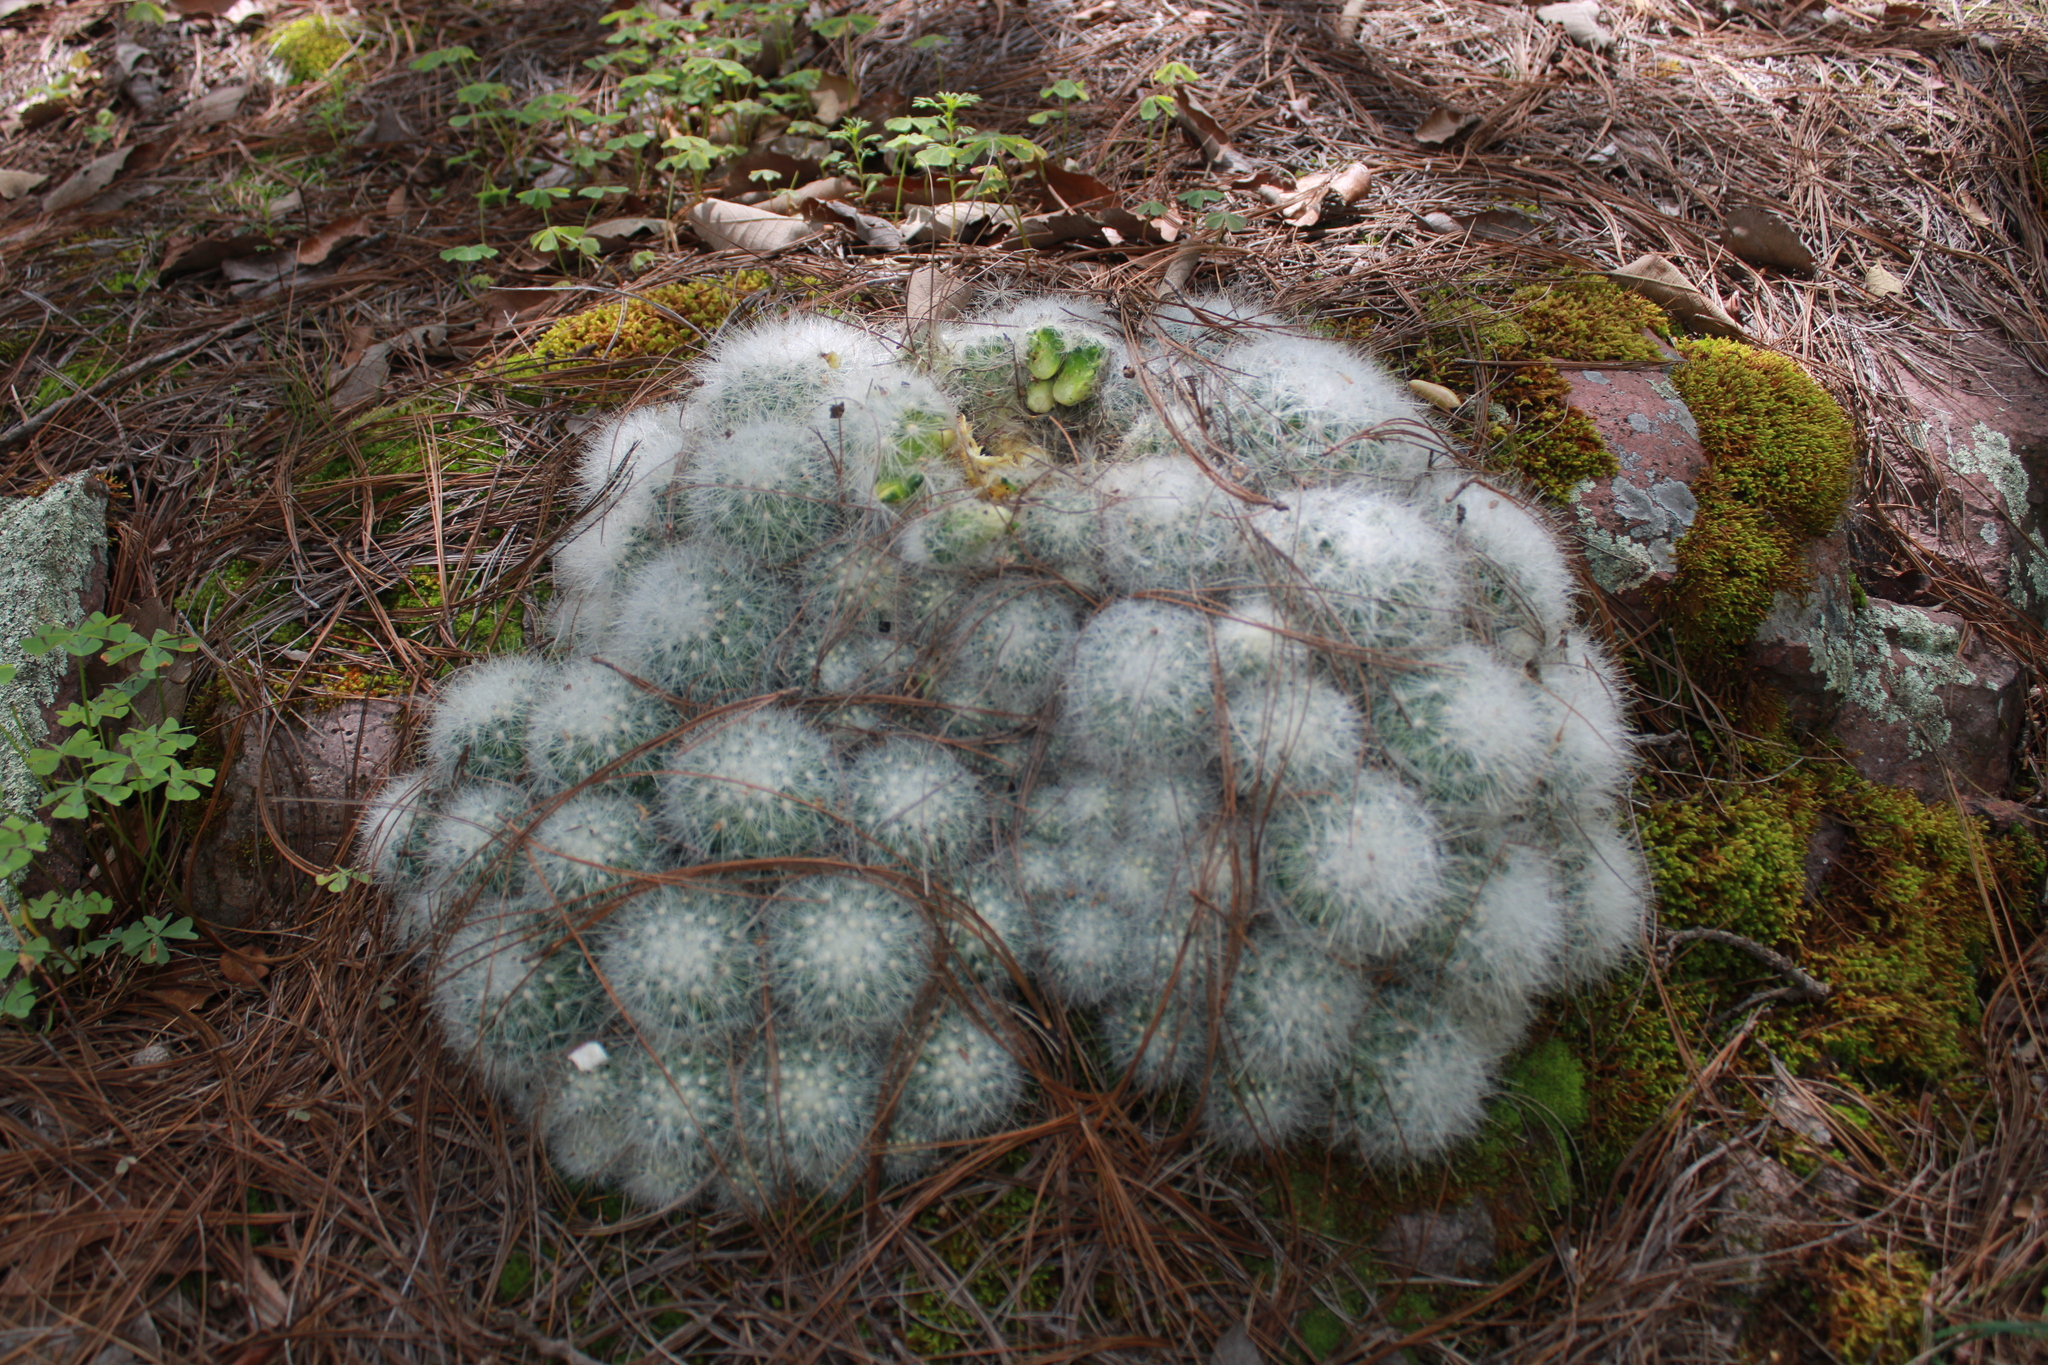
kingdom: Plantae
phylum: Tracheophyta
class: Magnoliopsida
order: Caryophyllales
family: Cactaceae
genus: Mammillaria
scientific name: Mammillaria senilis
